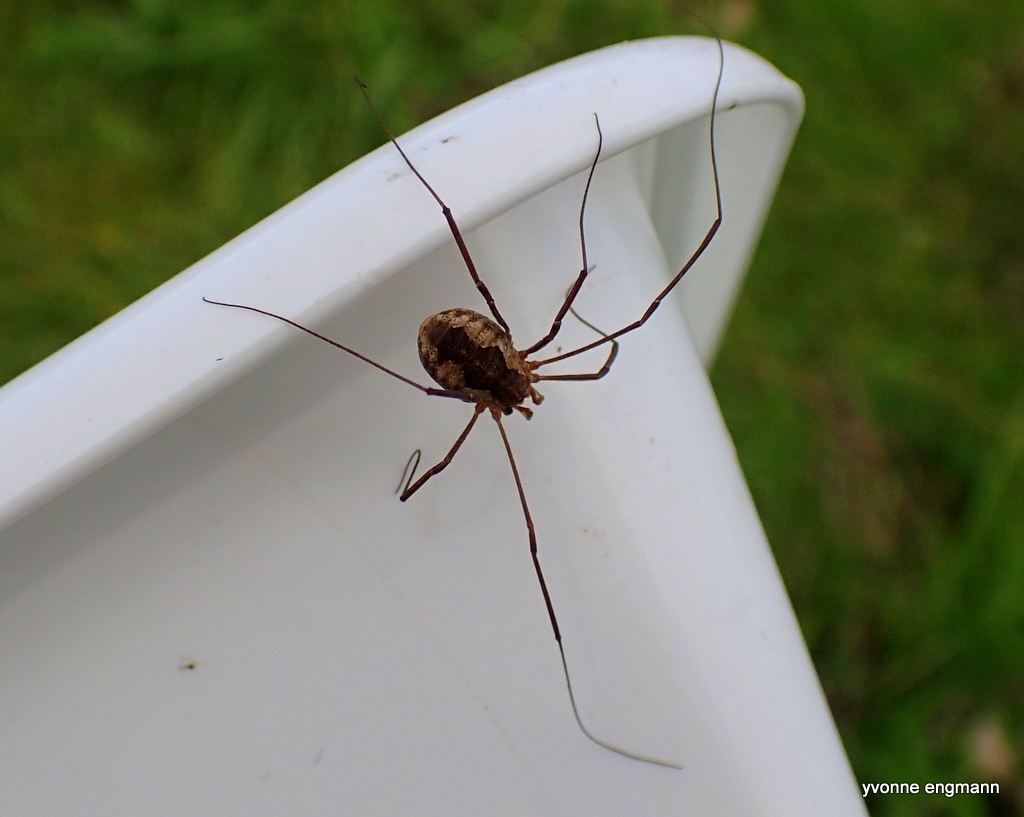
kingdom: Animalia
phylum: Arthropoda
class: Arachnida
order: Opiliones
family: Phalangiidae
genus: Phalangium
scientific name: Phalangium opilio
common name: Daddy longleg
